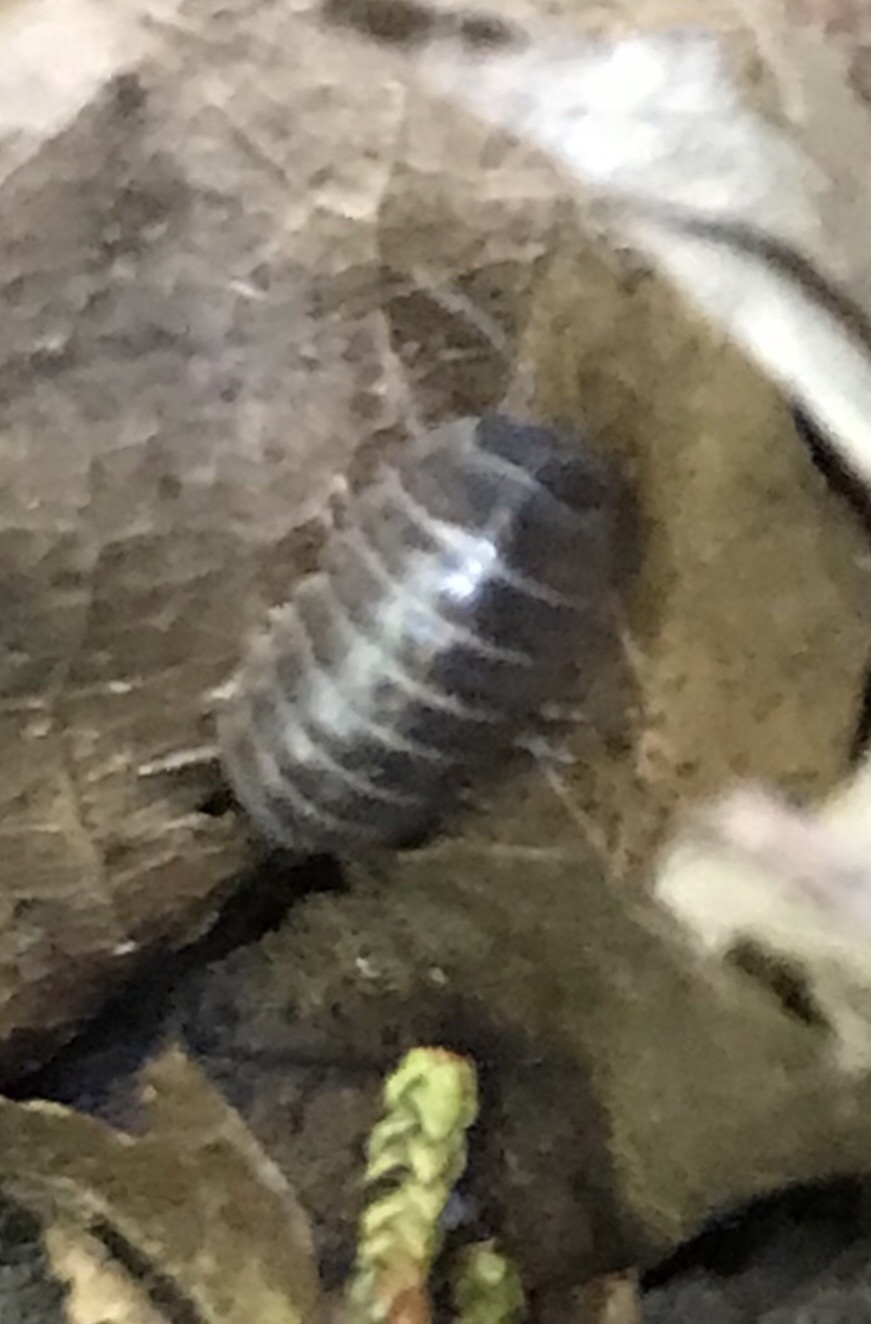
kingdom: Animalia
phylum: Arthropoda
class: Malacostraca
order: Isopoda
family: Armadillidiidae
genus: Armadillidium
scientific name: Armadillidium vulgare
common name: Common pill woodlouse
